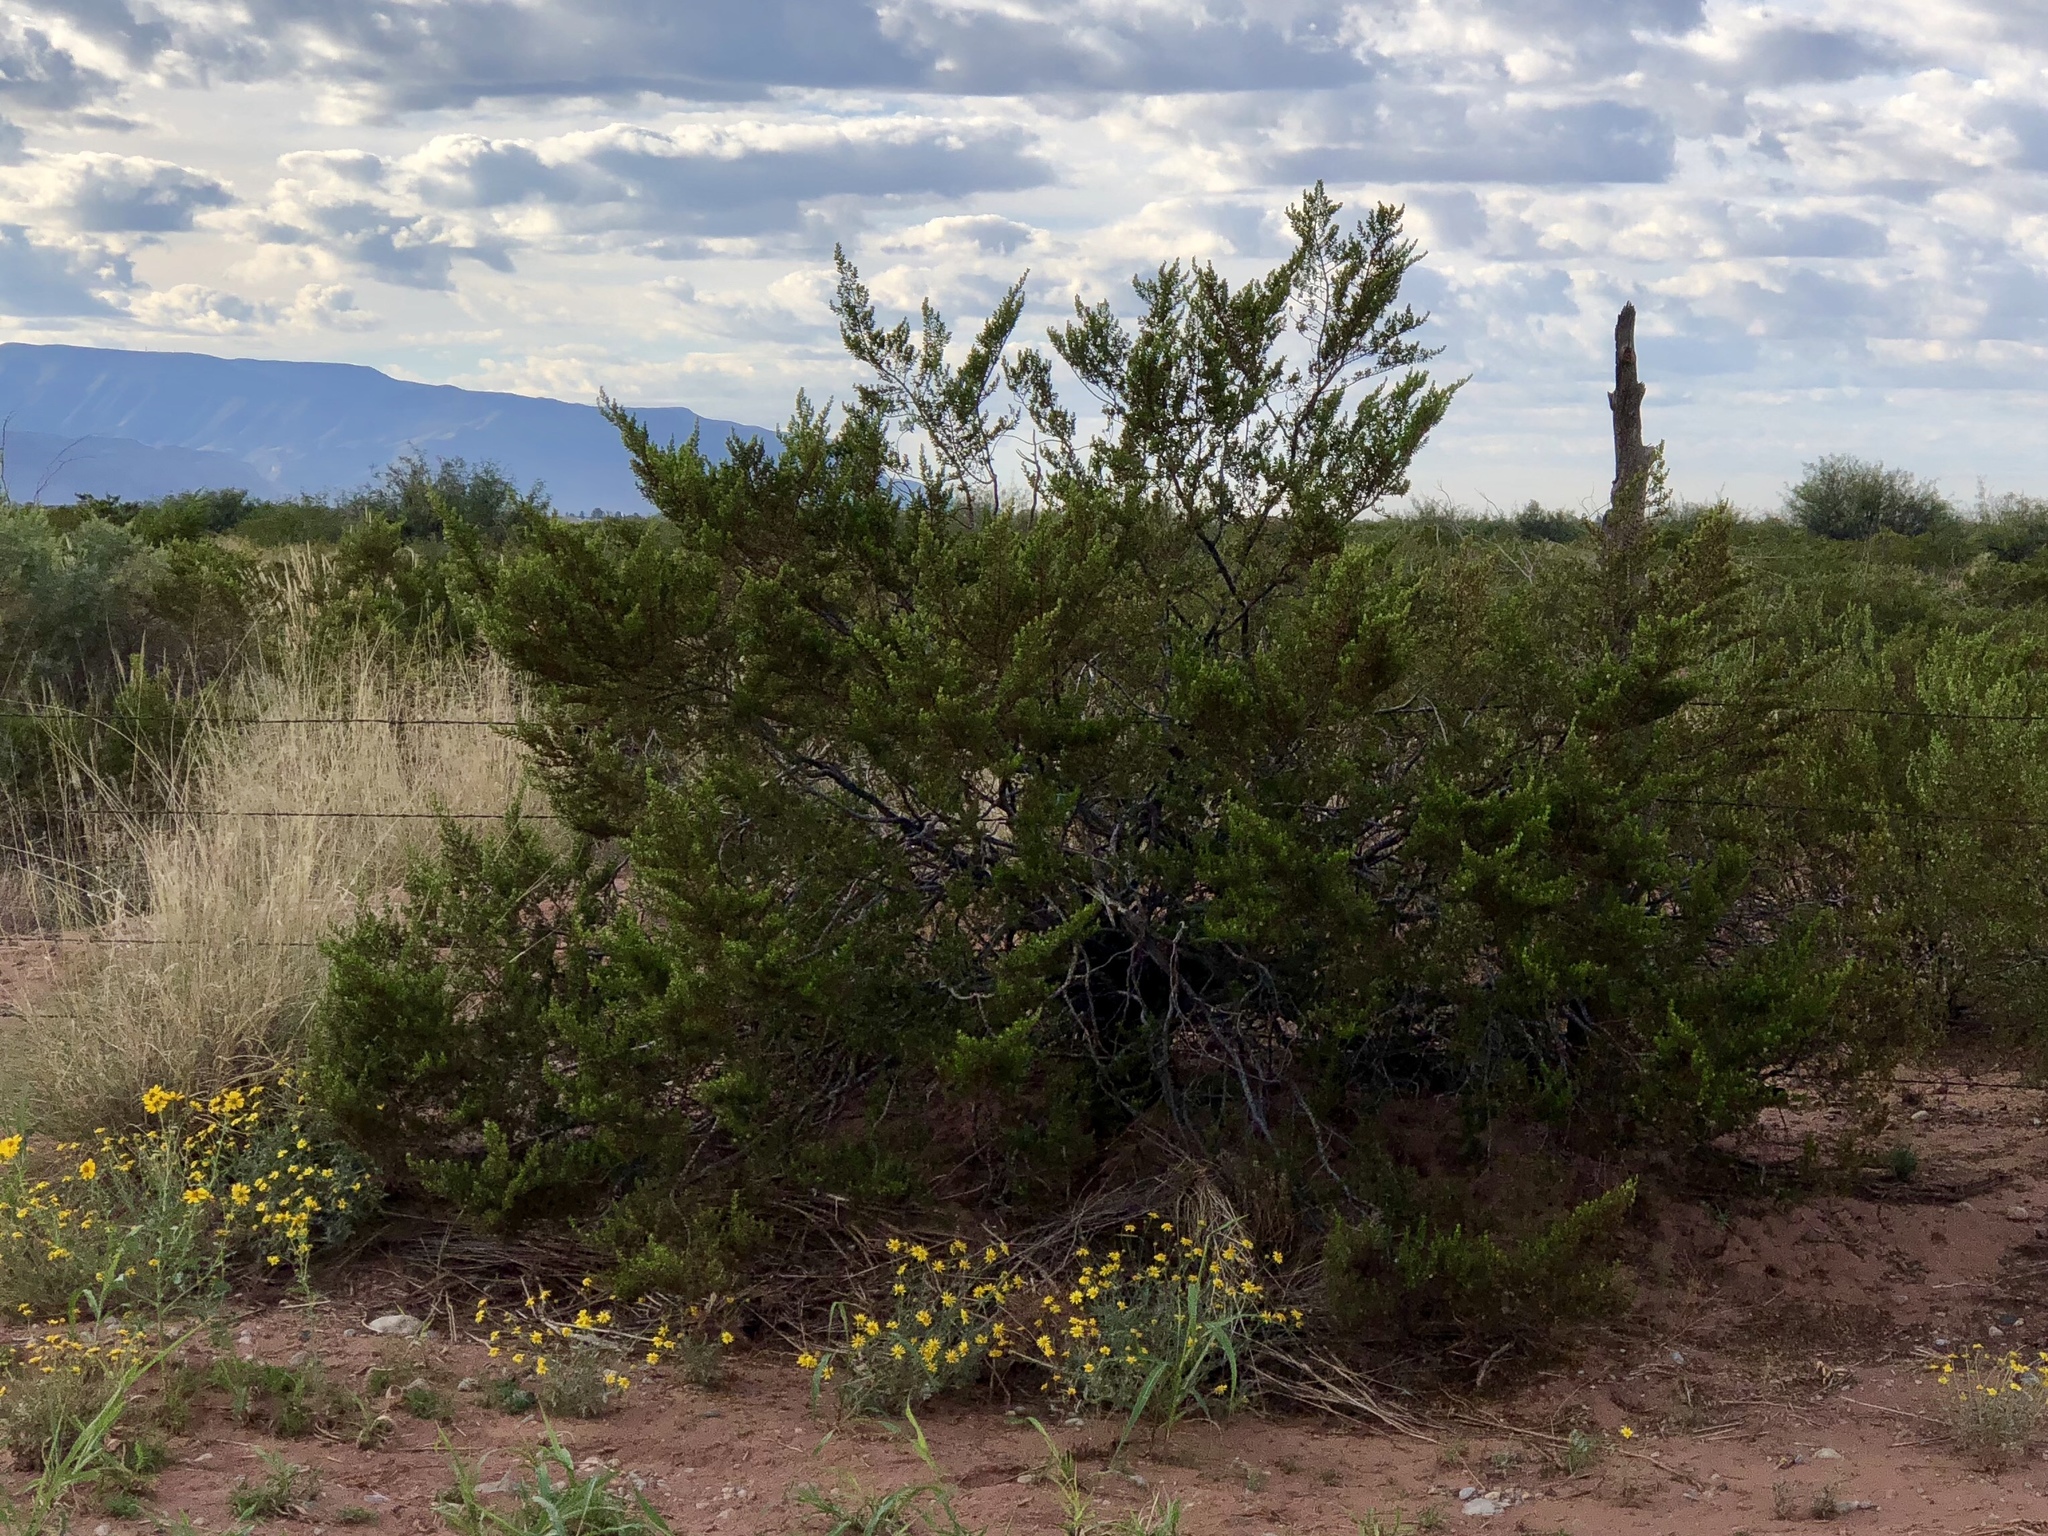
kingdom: Plantae
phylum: Tracheophyta
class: Magnoliopsida
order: Zygophyllales
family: Zygophyllaceae
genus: Larrea
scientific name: Larrea tridentata
